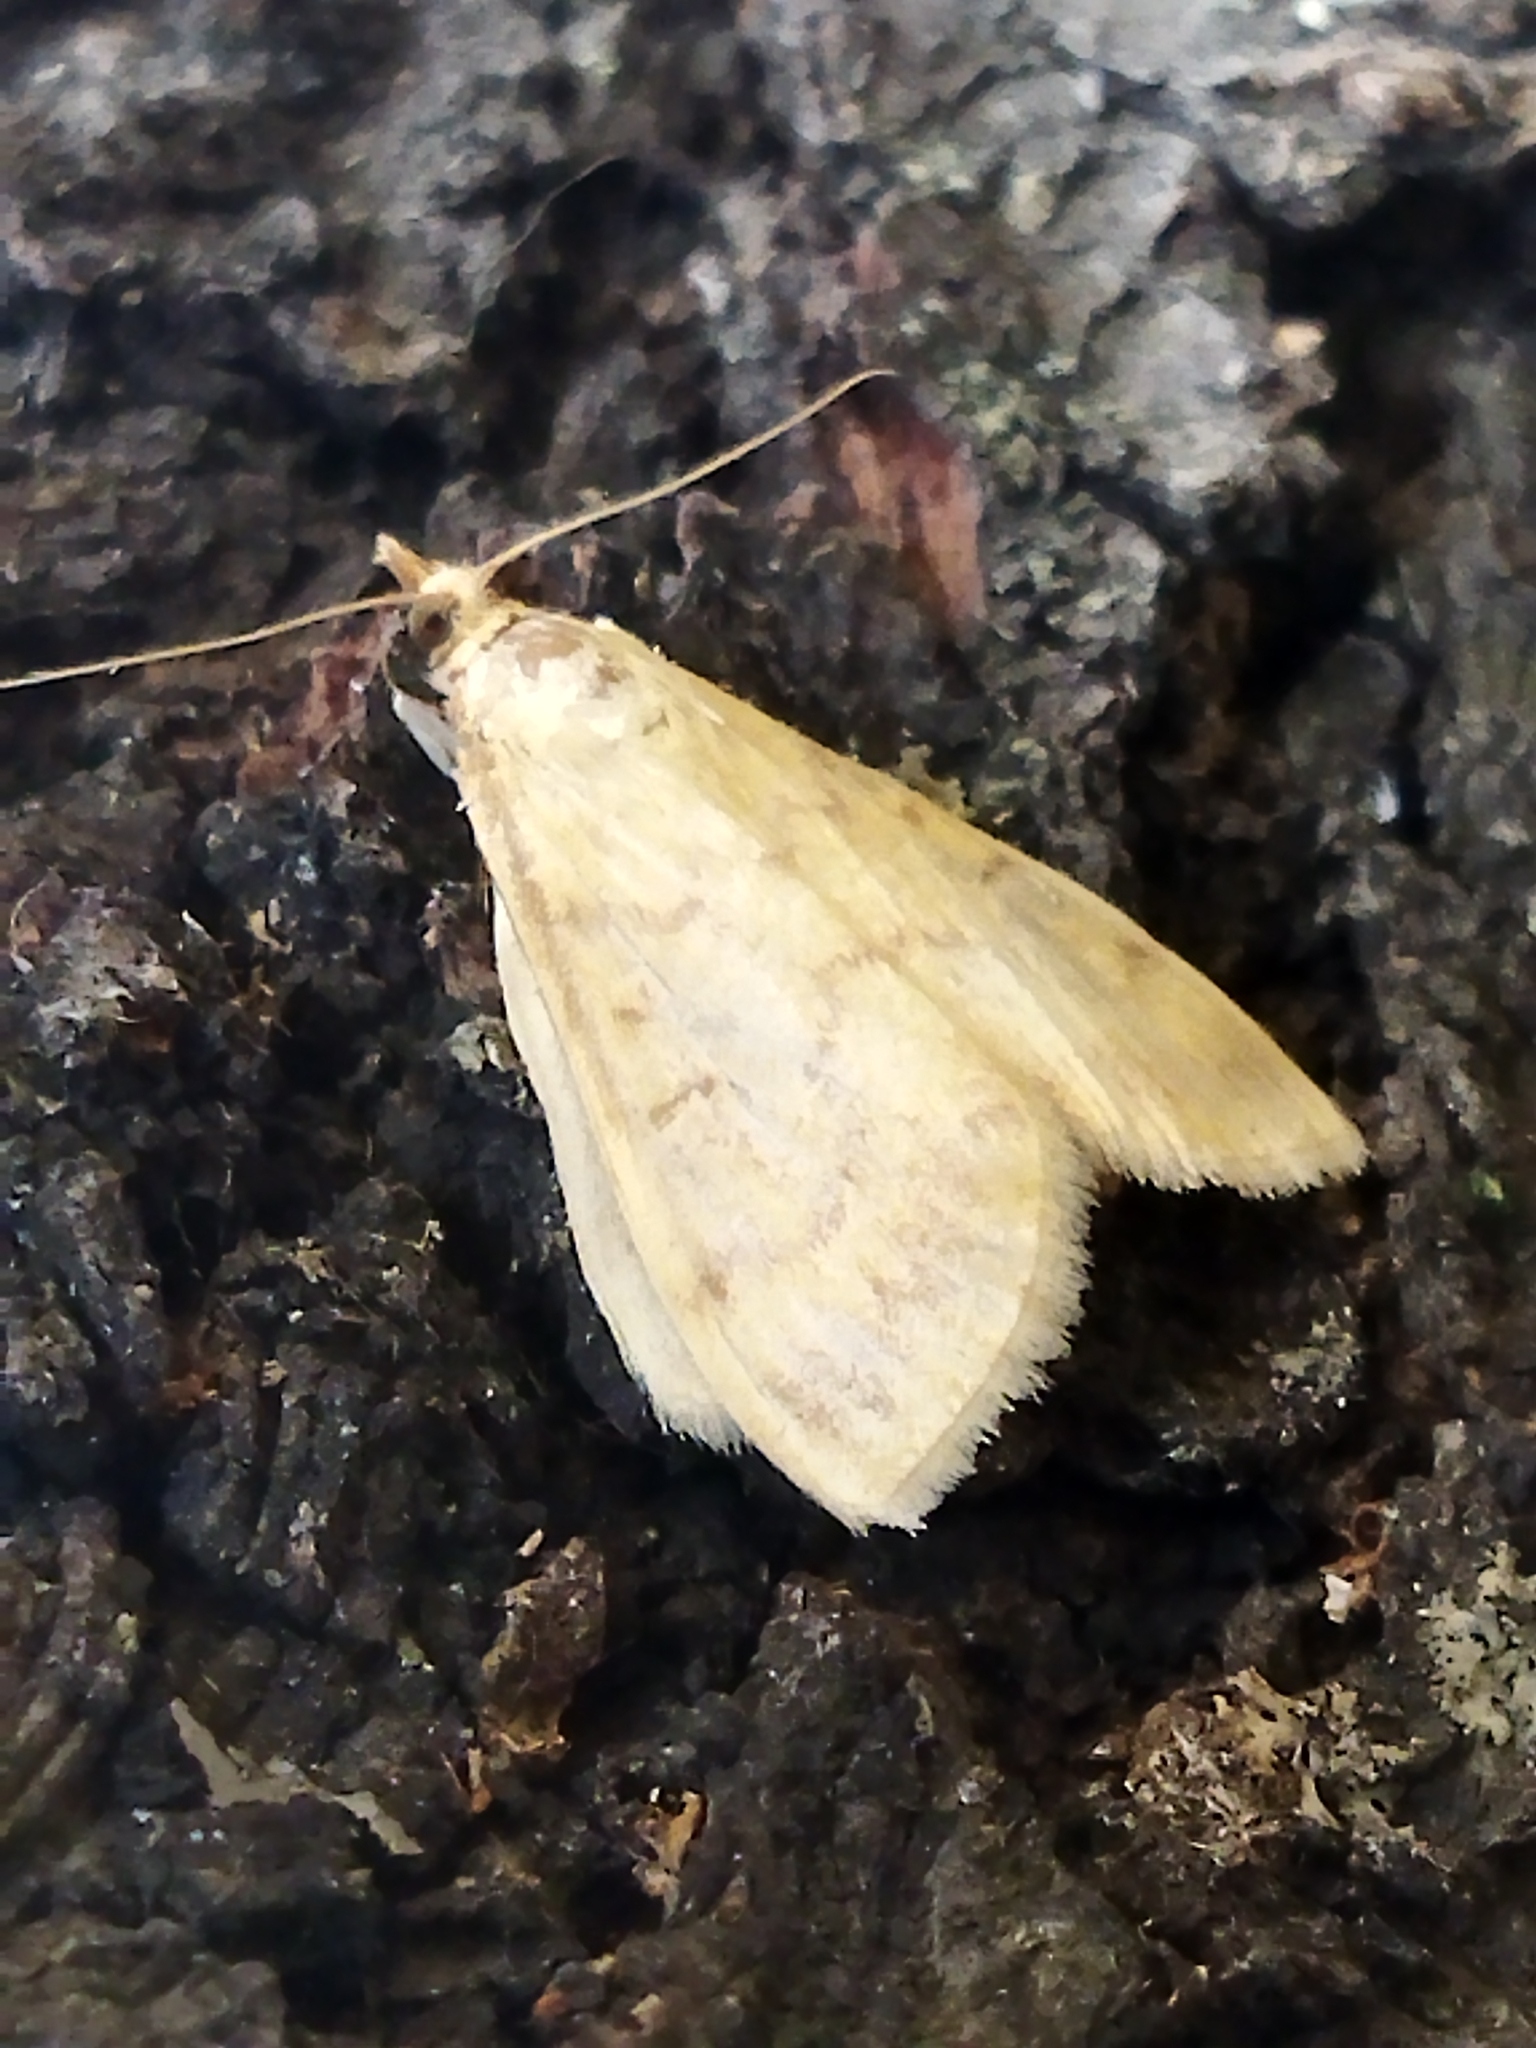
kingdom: Animalia
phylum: Arthropoda
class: Insecta
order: Lepidoptera
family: Crambidae
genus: Ostrinia
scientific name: Ostrinia nubilalis
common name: European corn borer
